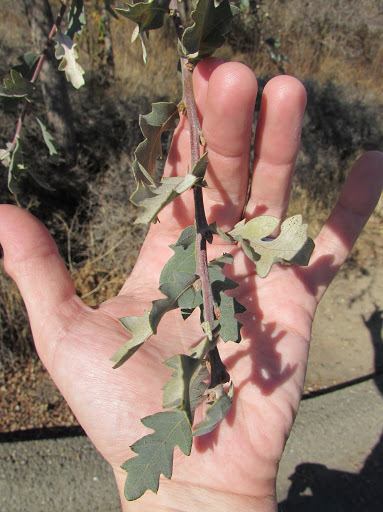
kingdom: Plantae
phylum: Tracheophyta
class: Magnoliopsida
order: Fagales
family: Fagaceae
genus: Quercus
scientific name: Quercus douglasii
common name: Blue oak
